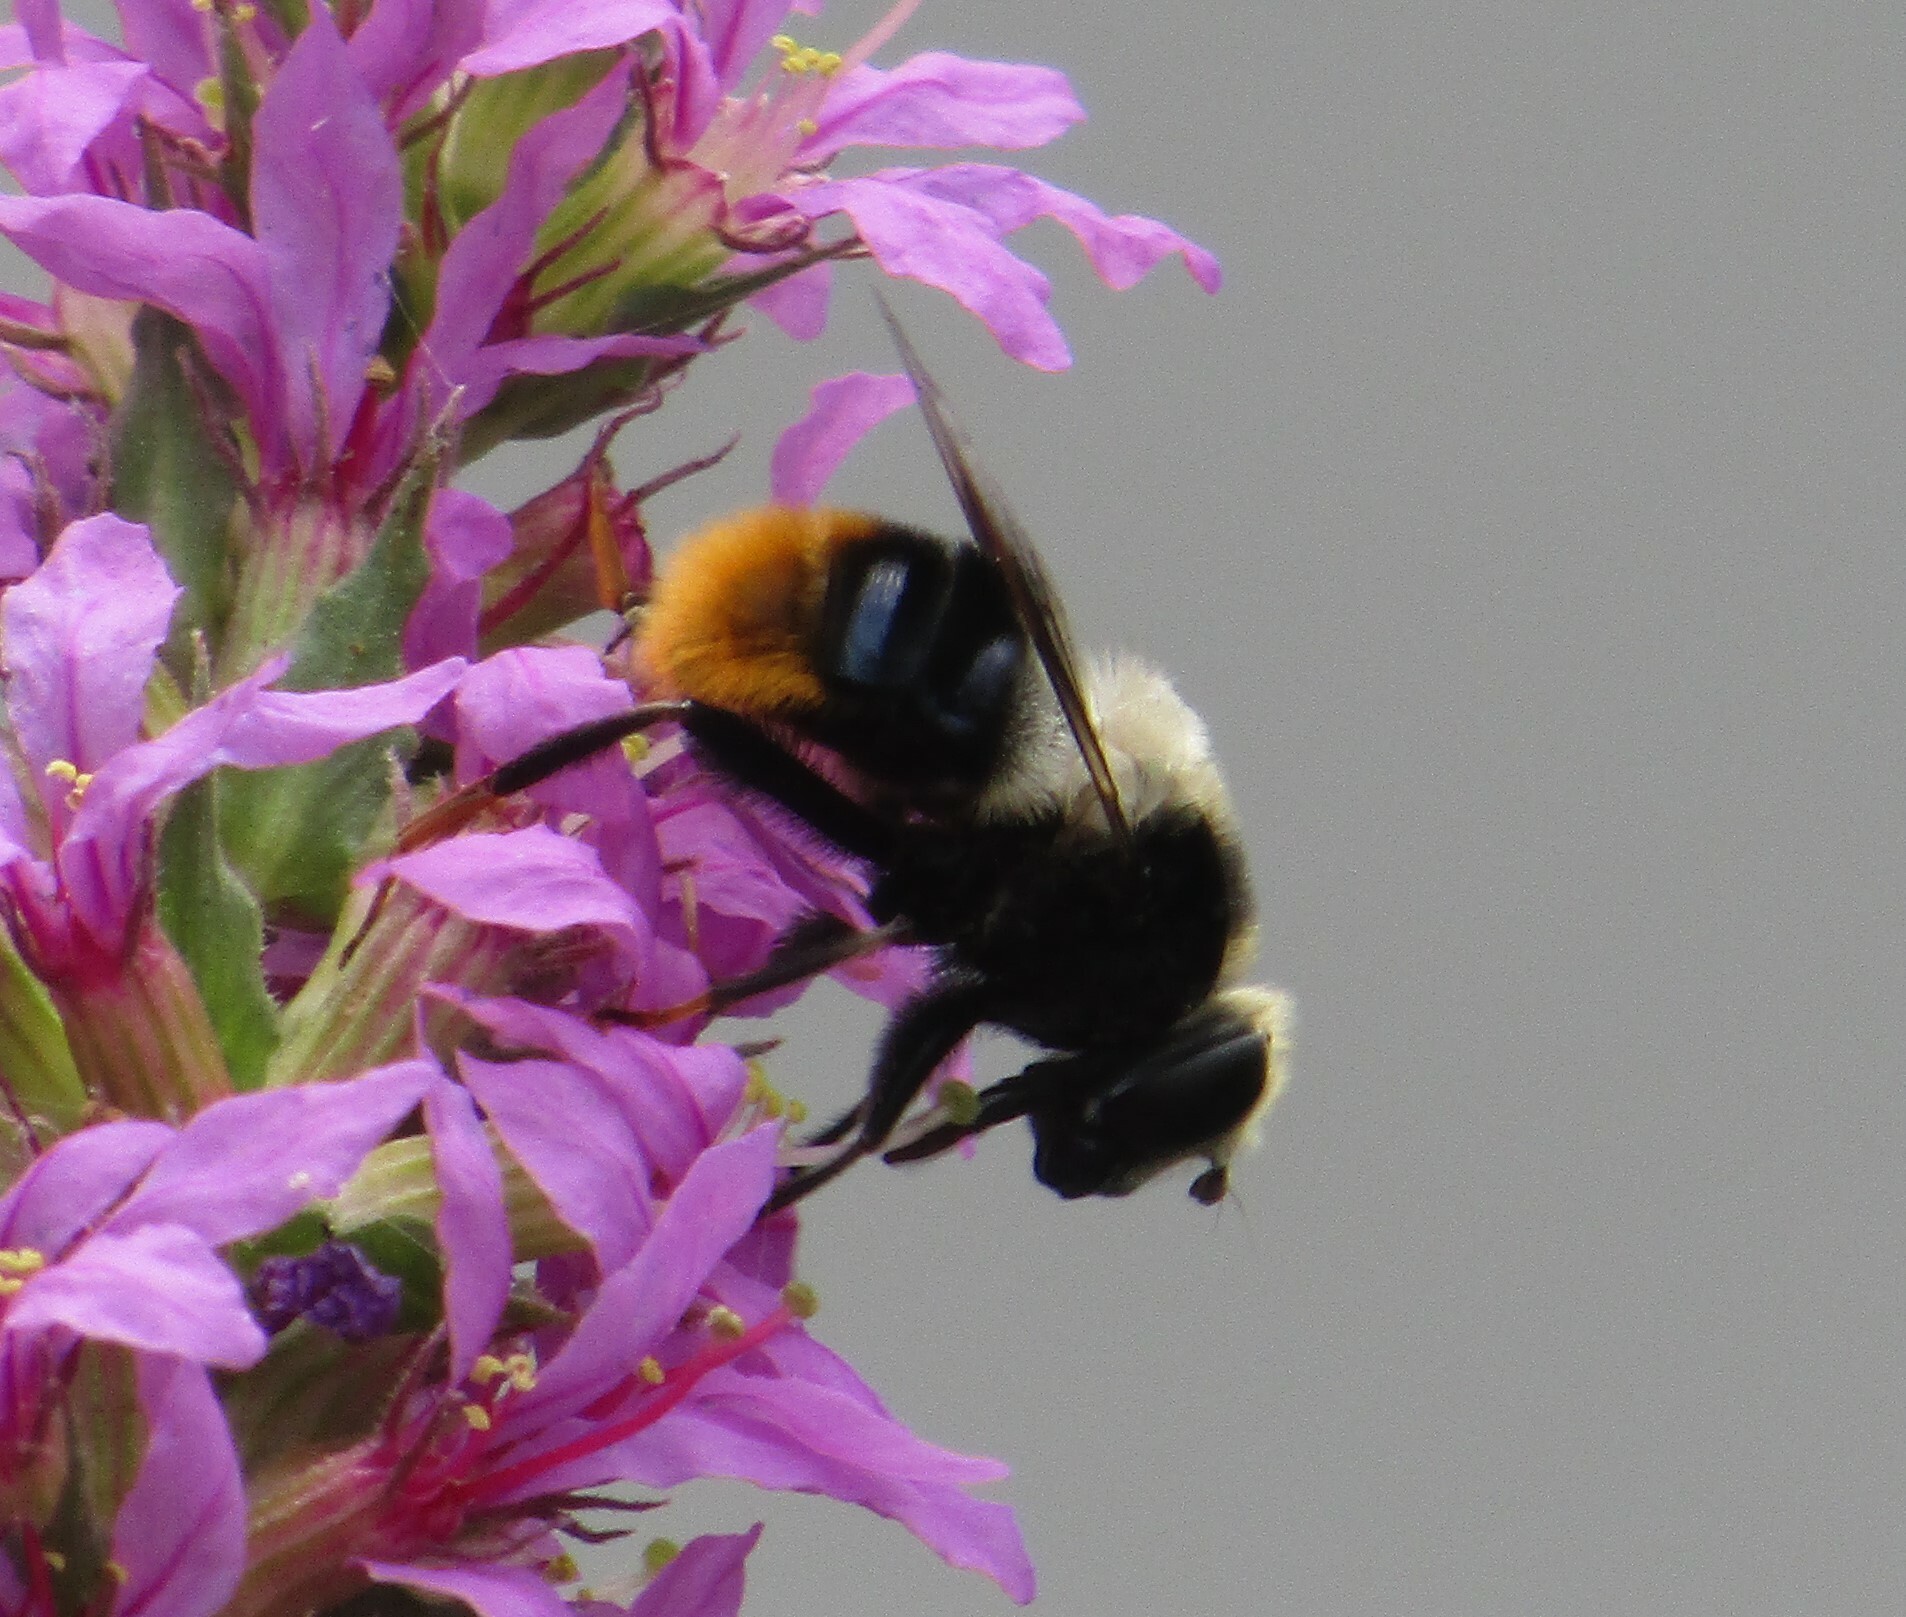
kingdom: Animalia
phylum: Arthropoda
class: Insecta
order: Diptera
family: Syrphidae
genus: Eristalis
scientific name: Eristalis oestracea
